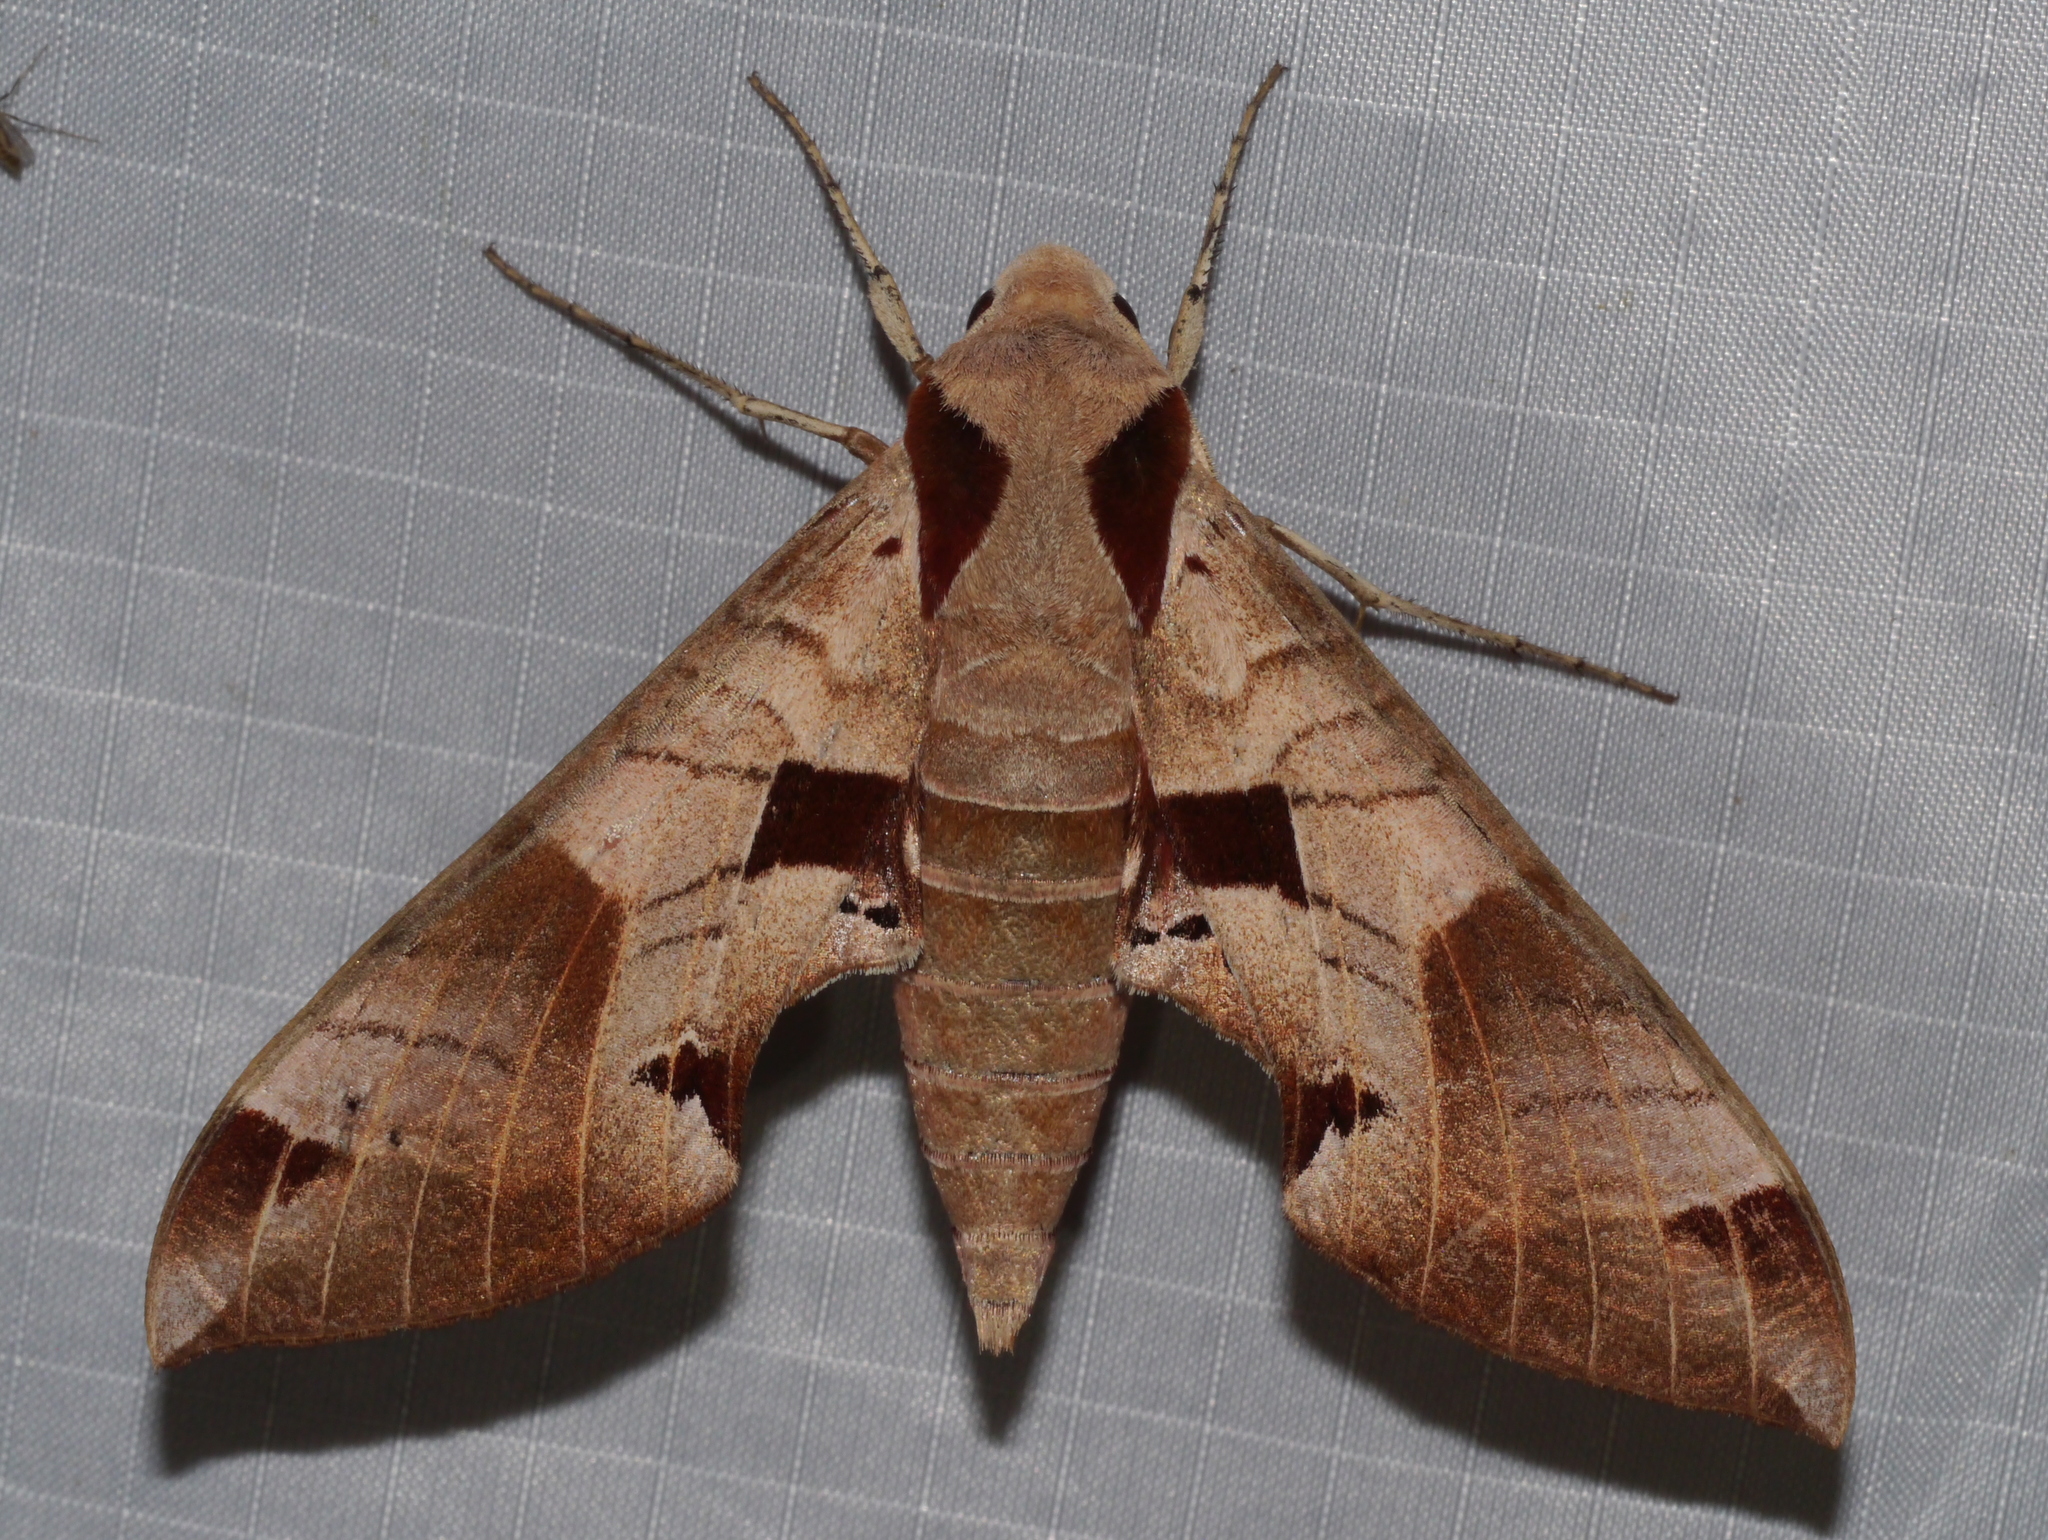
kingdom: Animalia
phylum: Arthropoda
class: Insecta
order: Lepidoptera
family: Sphingidae
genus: Eumorpha
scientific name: Eumorpha achemon
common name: Achemon sphinx
